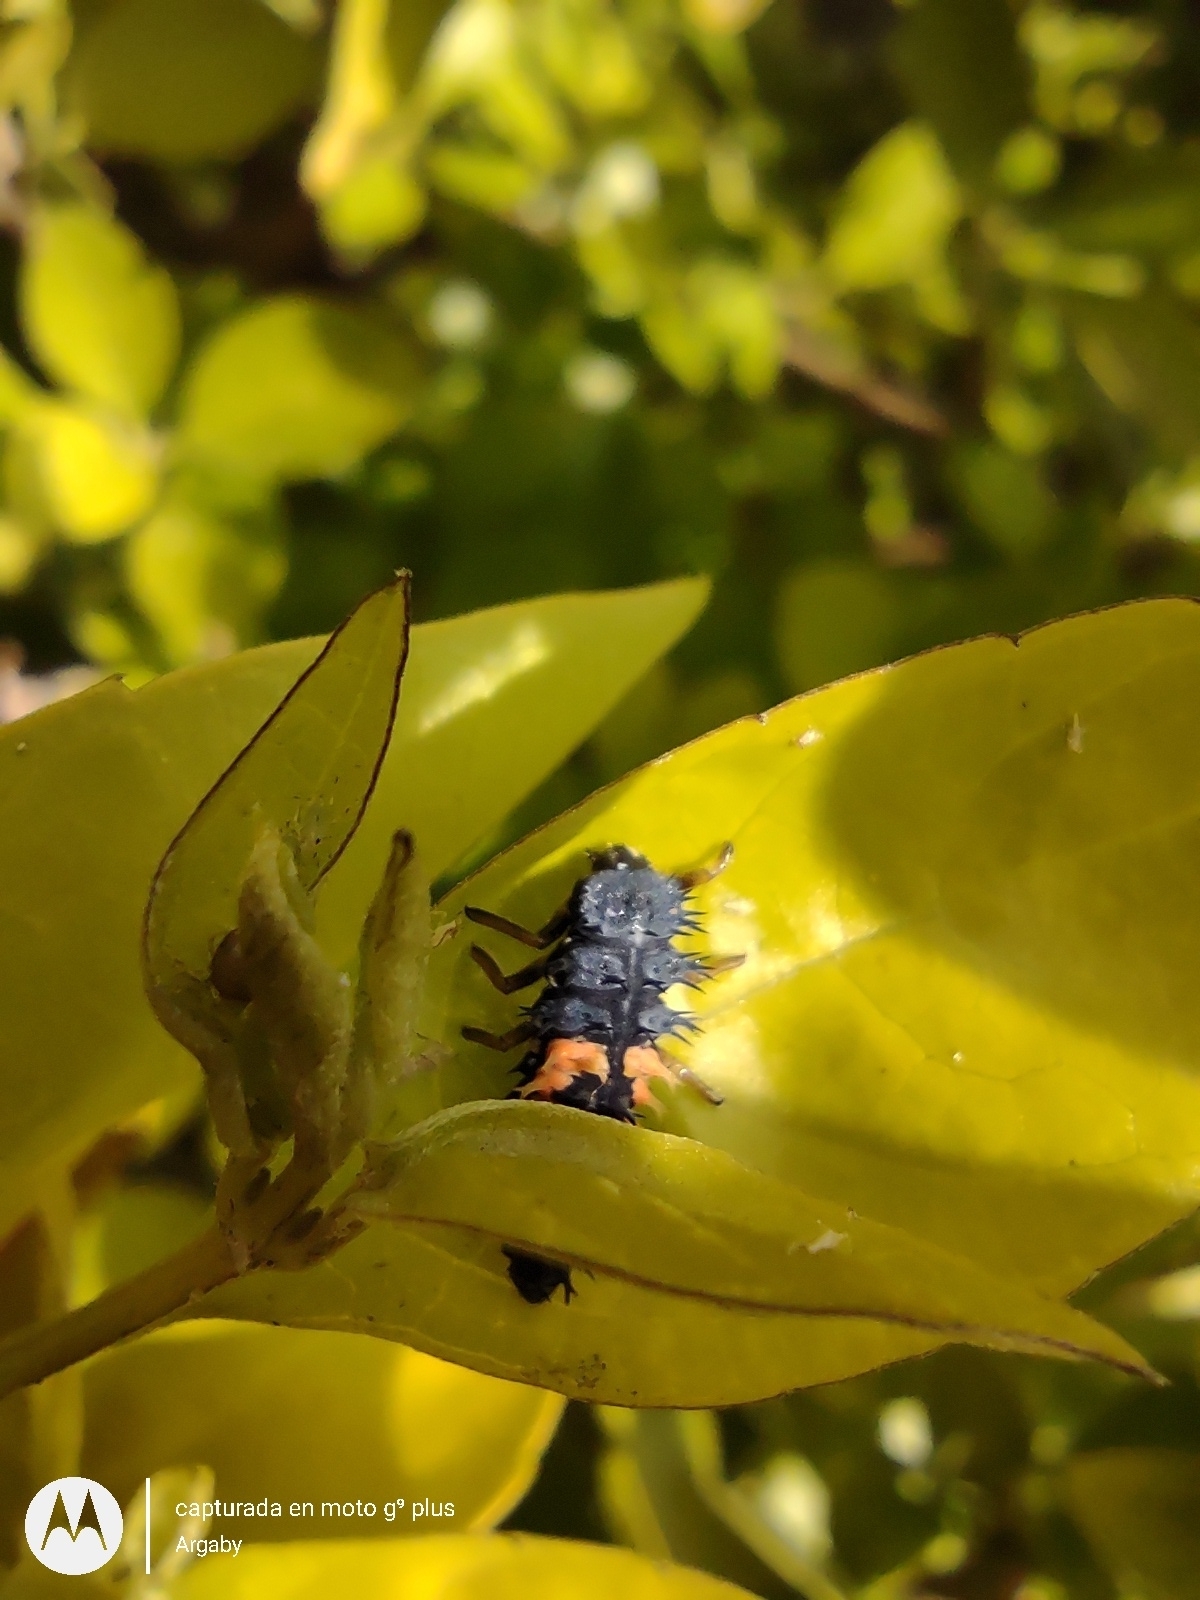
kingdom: Animalia
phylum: Arthropoda
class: Insecta
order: Coleoptera
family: Coccinellidae
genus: Harmonia
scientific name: Harmonia axyridis
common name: Harlequin ladybird
